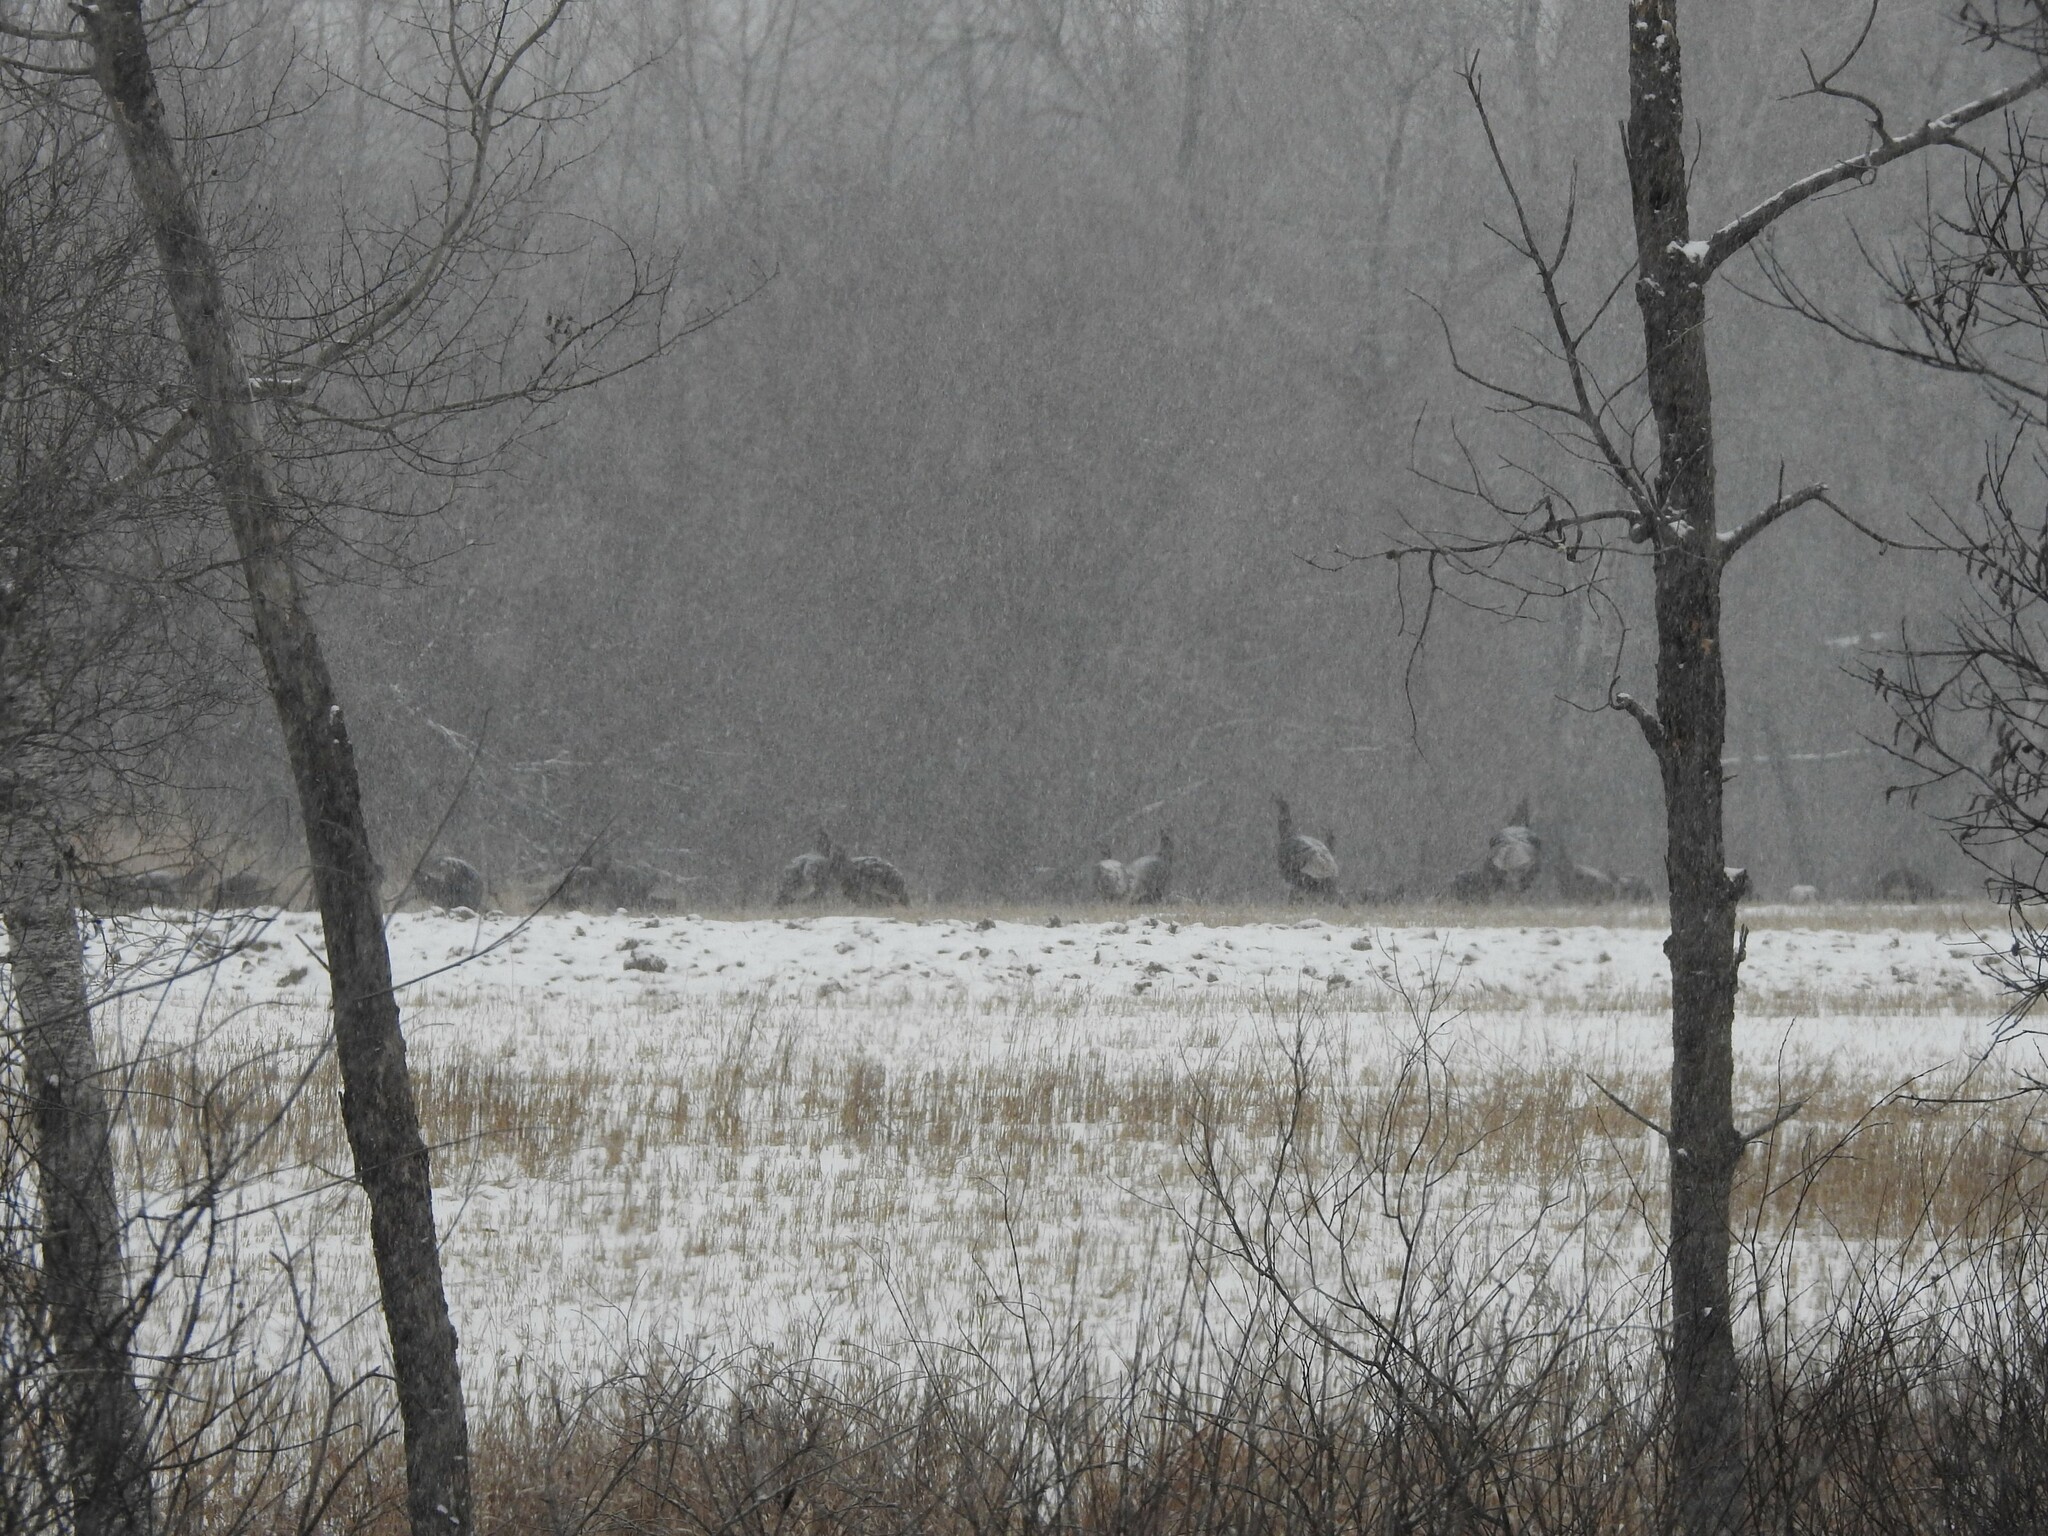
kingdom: Animalia
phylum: Chordata
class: Aves
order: Galliformes
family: Phasianidae
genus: Meleagris
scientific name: Meleagris gallopavo
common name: Wild turkey
